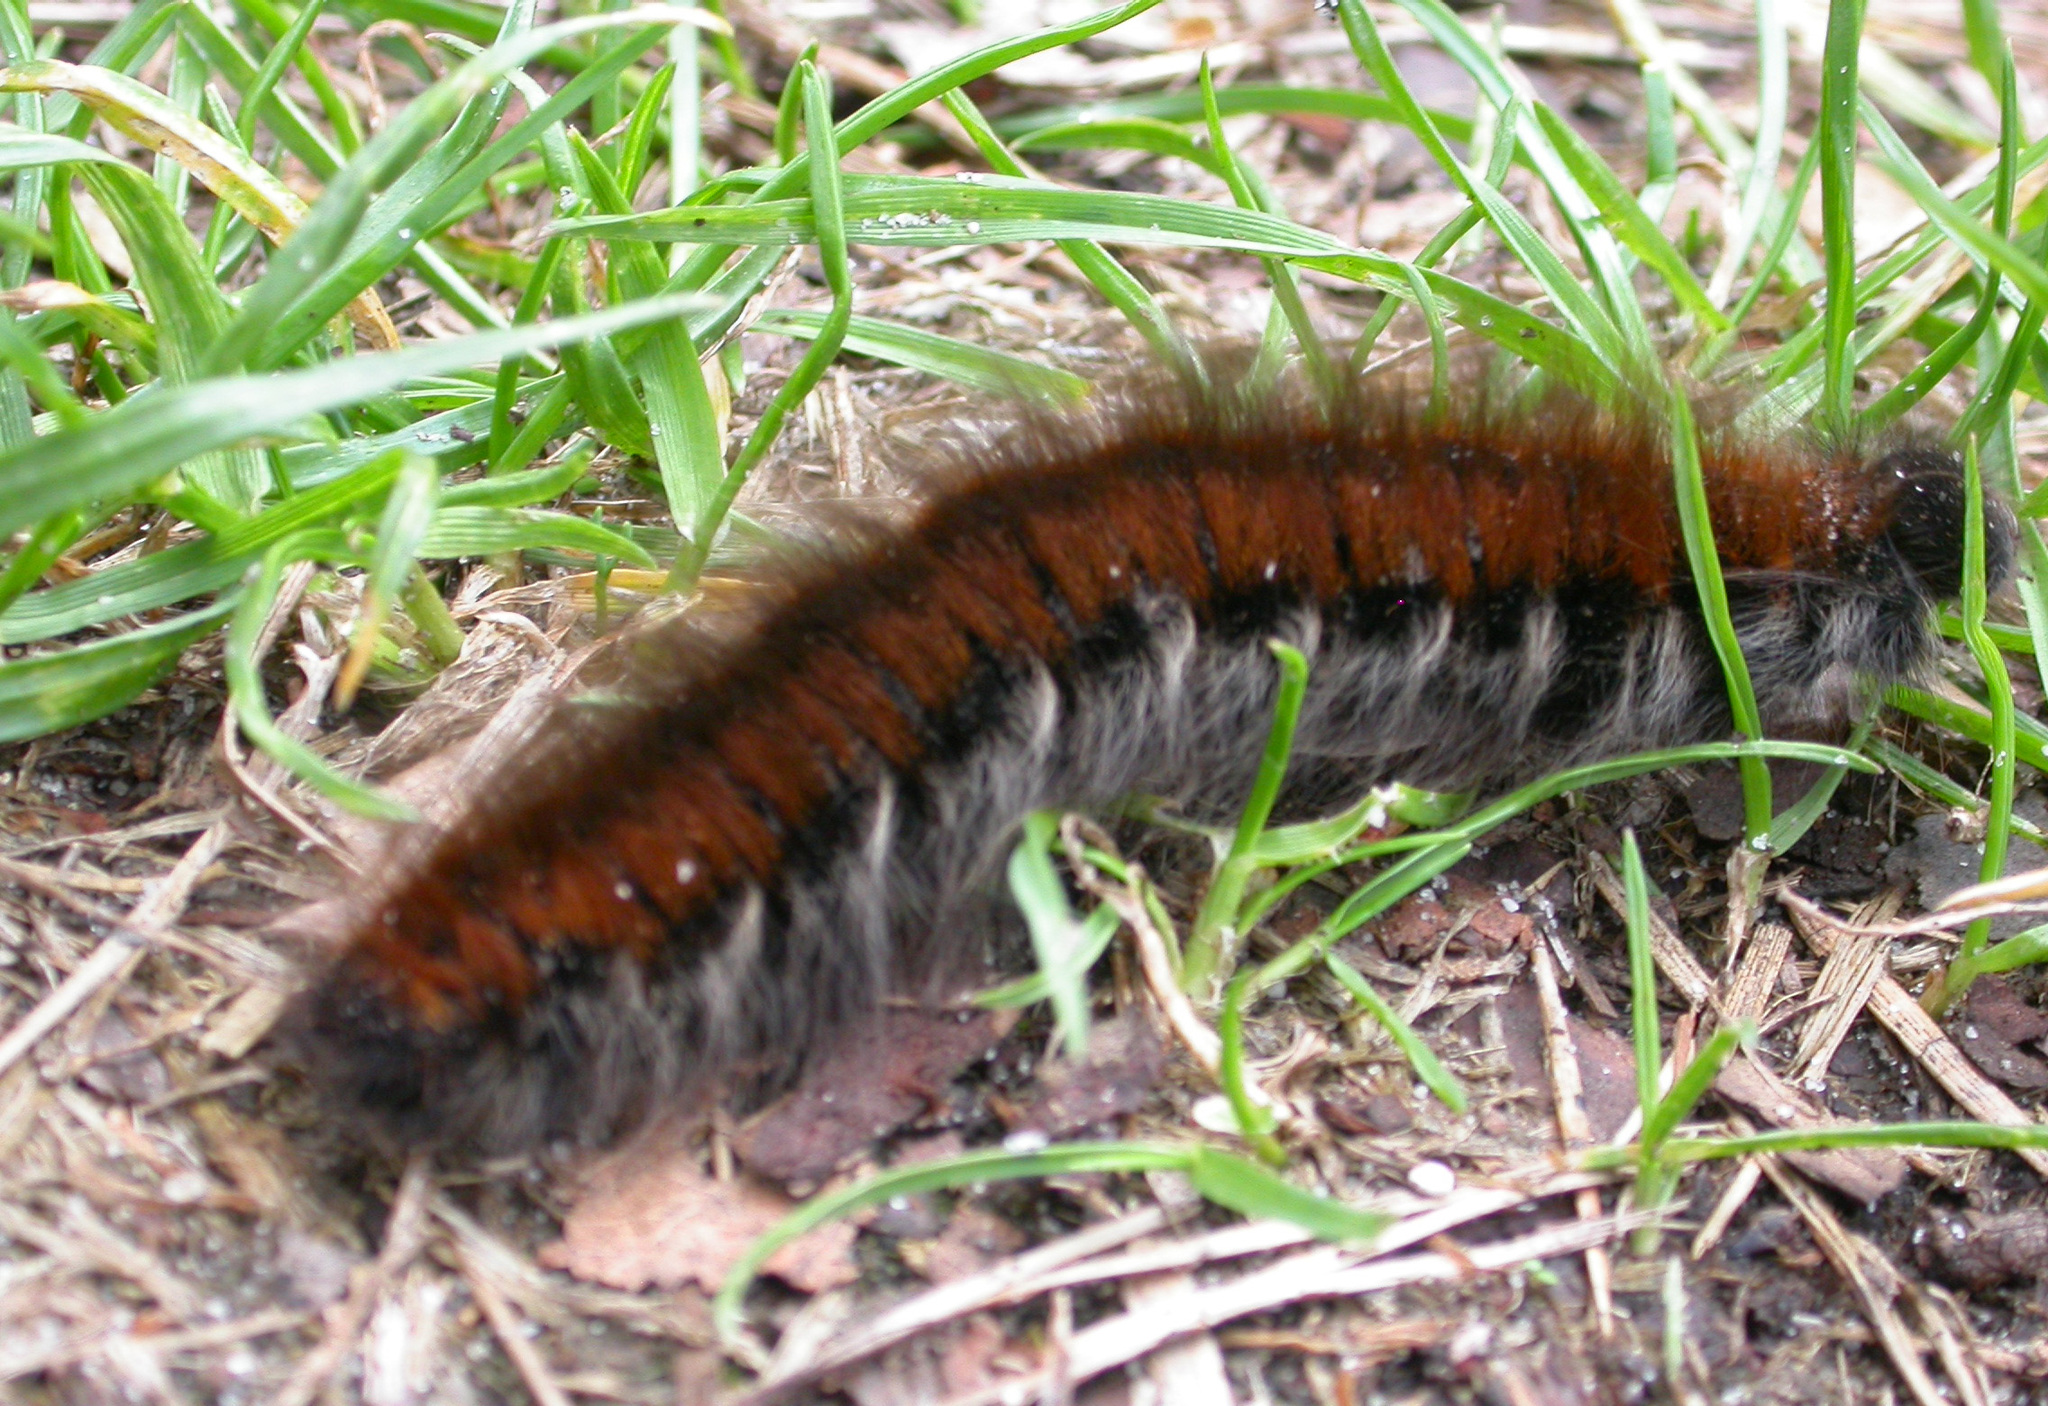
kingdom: Animalia
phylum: Arthropoda
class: Insecta
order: Lepidoptera
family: Lasiocampidae
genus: Macrothylacia
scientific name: Macrothylacia rubi
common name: Fox moth
